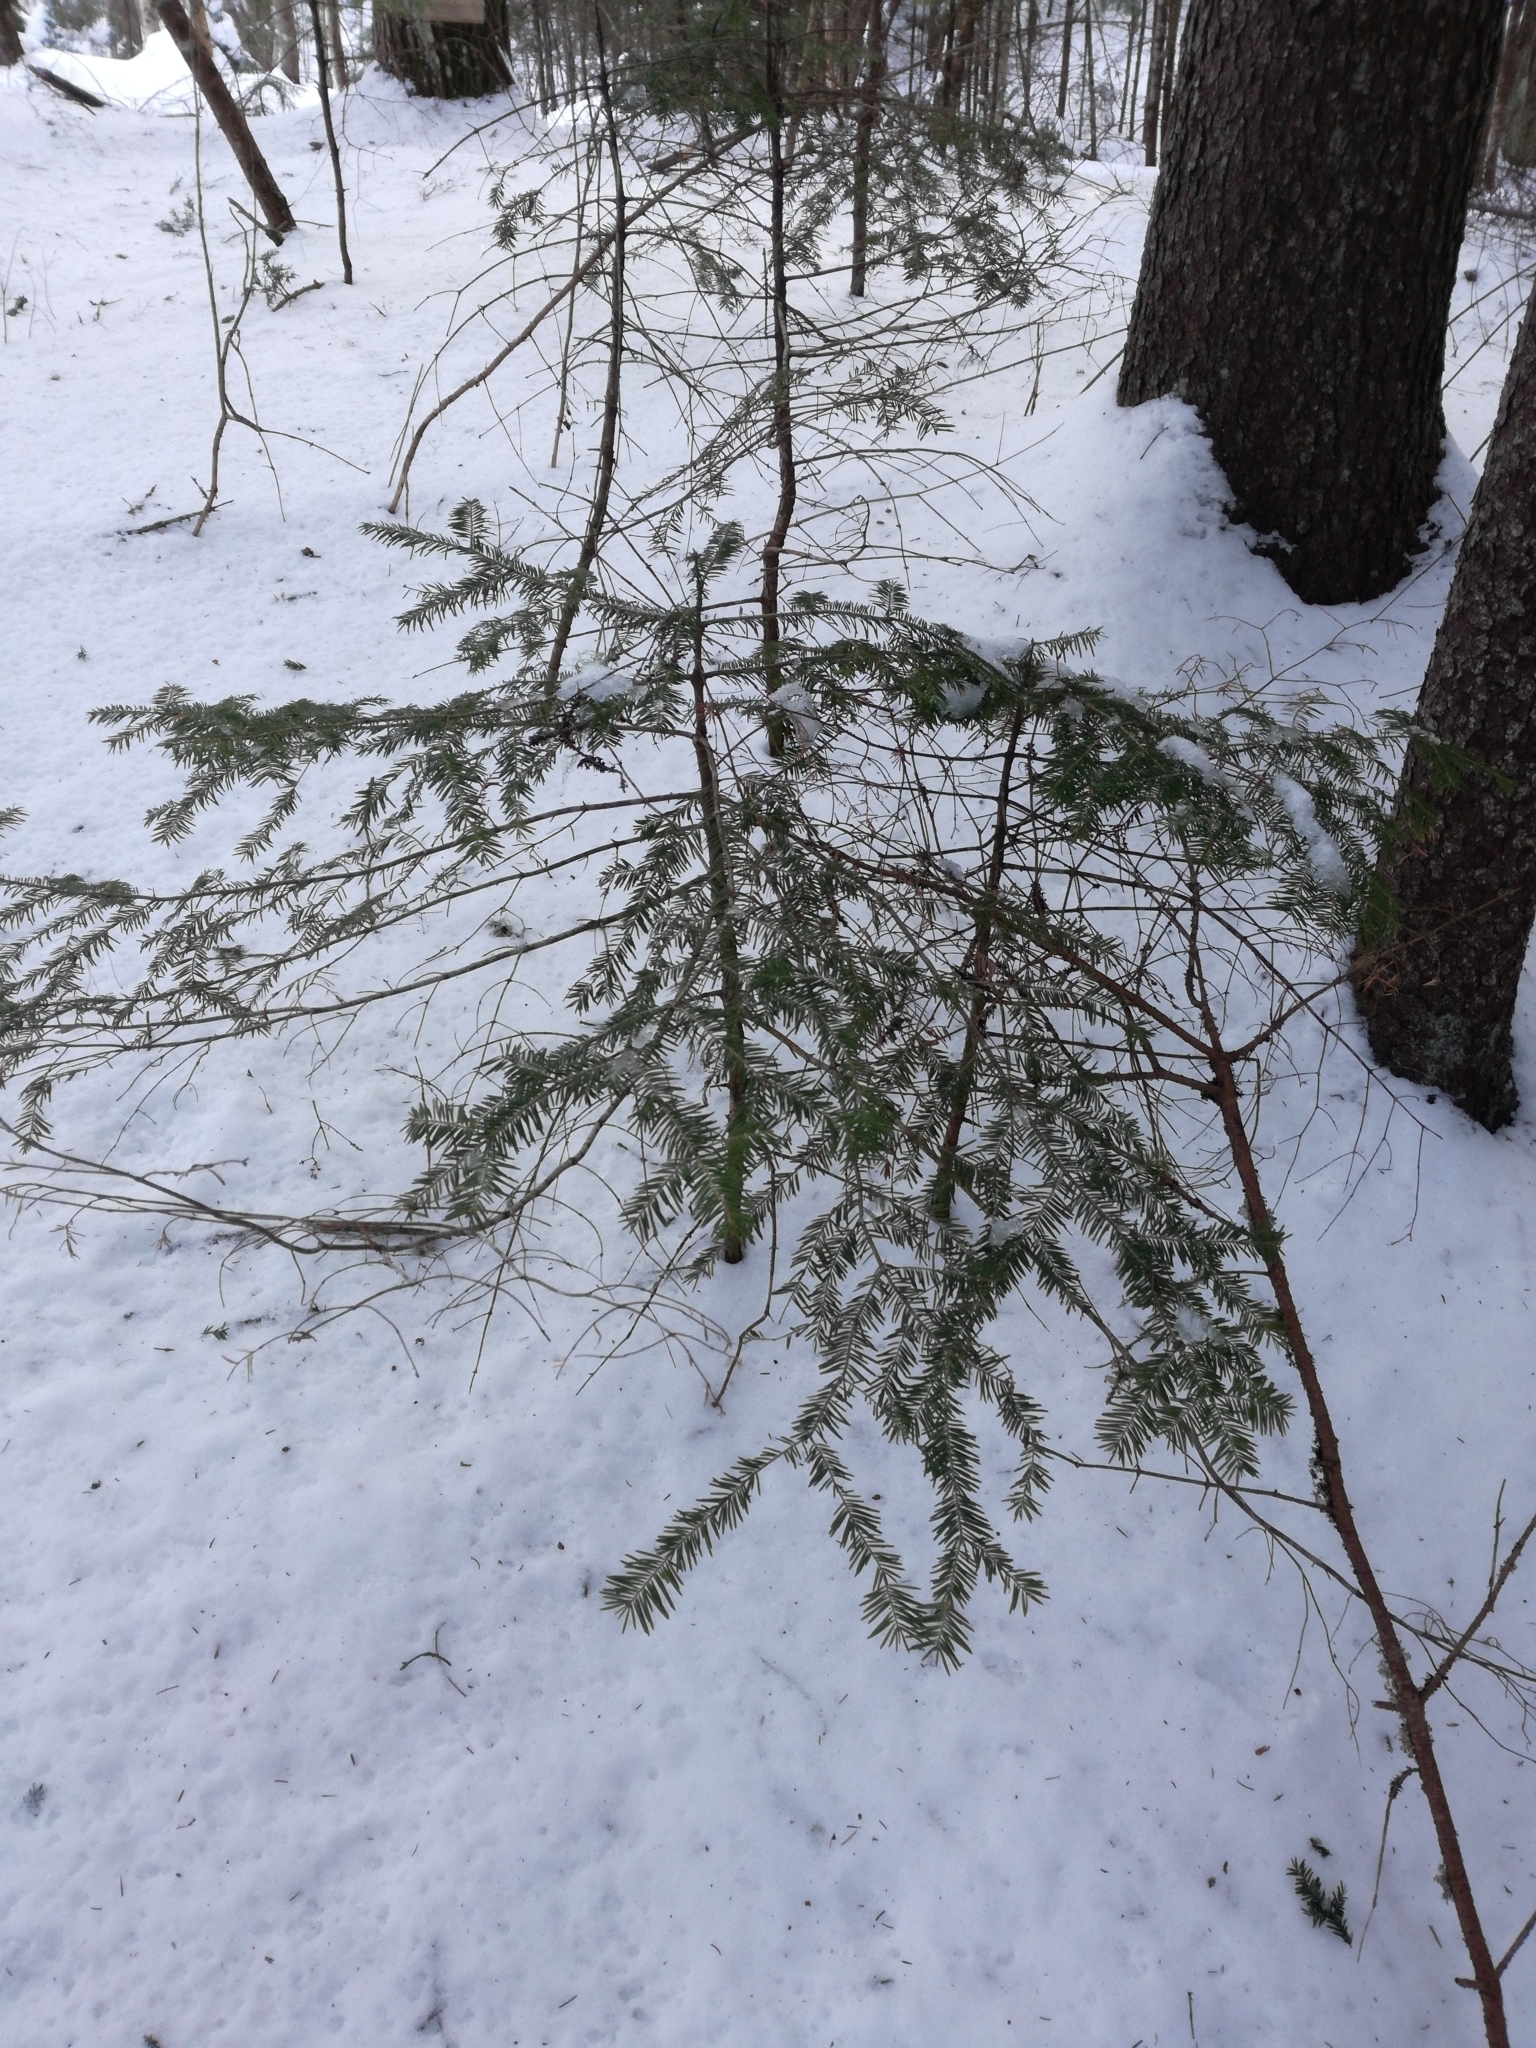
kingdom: Plantae
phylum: Tracheophyta
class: Pinopsida
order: Pinales
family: Pinaceae
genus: Abies
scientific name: Abies balsamea
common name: Balsam fir
